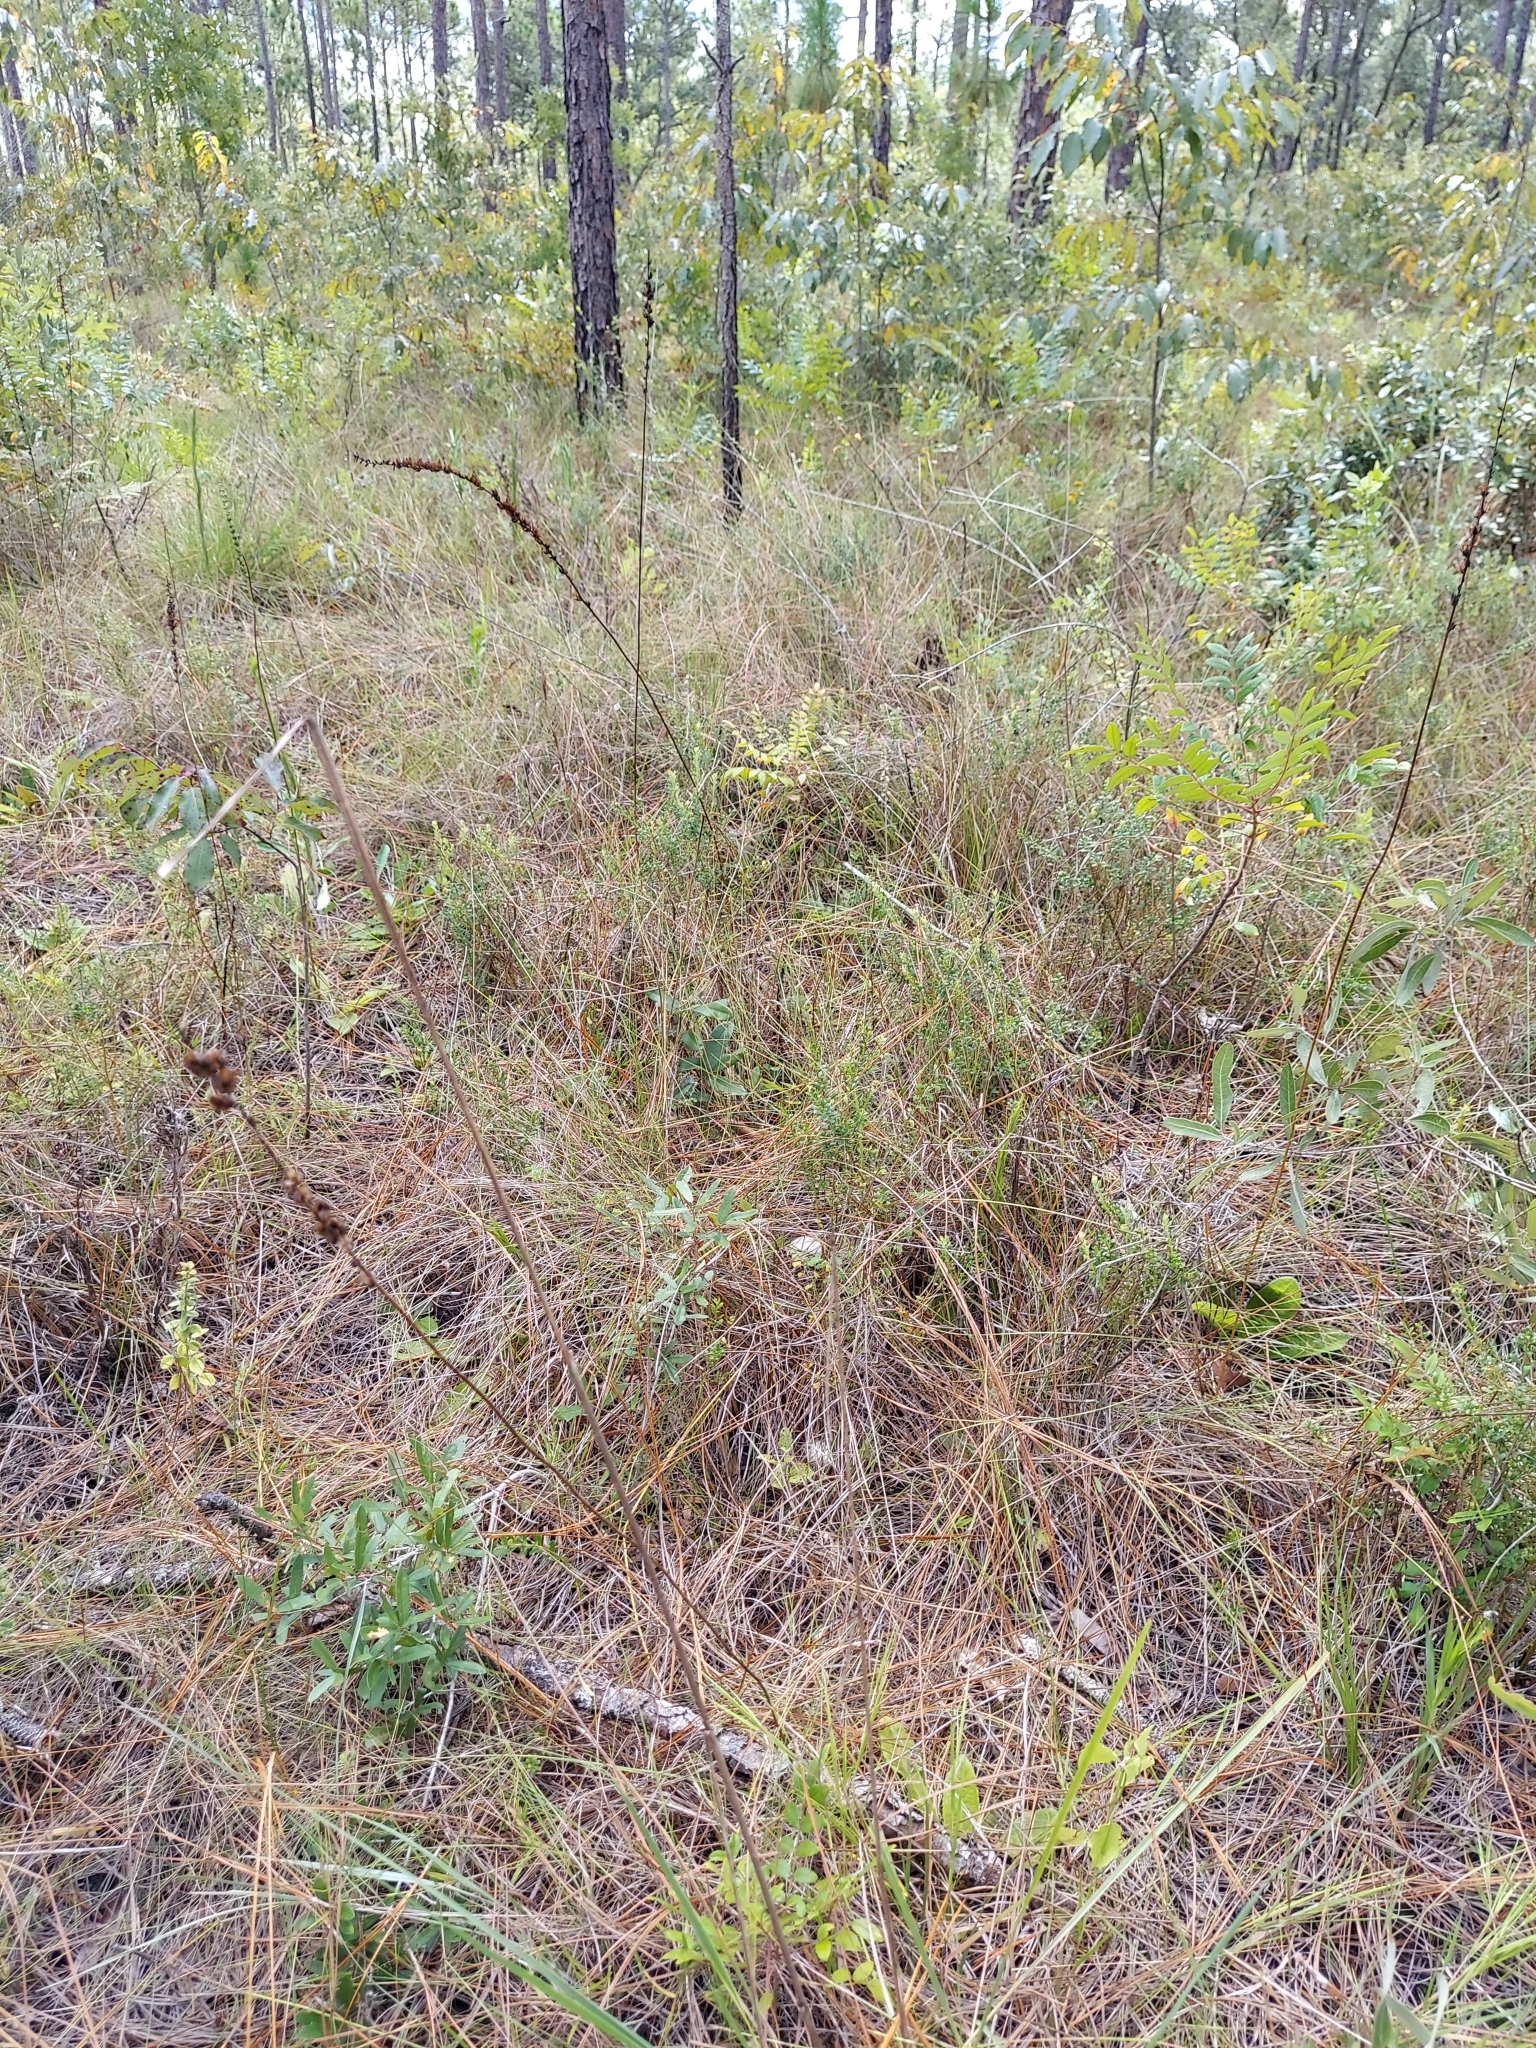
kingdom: Plantae
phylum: Tracheophyta
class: Liliopsida
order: Liliales
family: Melanthiaceae
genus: Schoenocaulon
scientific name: Schoenocaulon dubium
